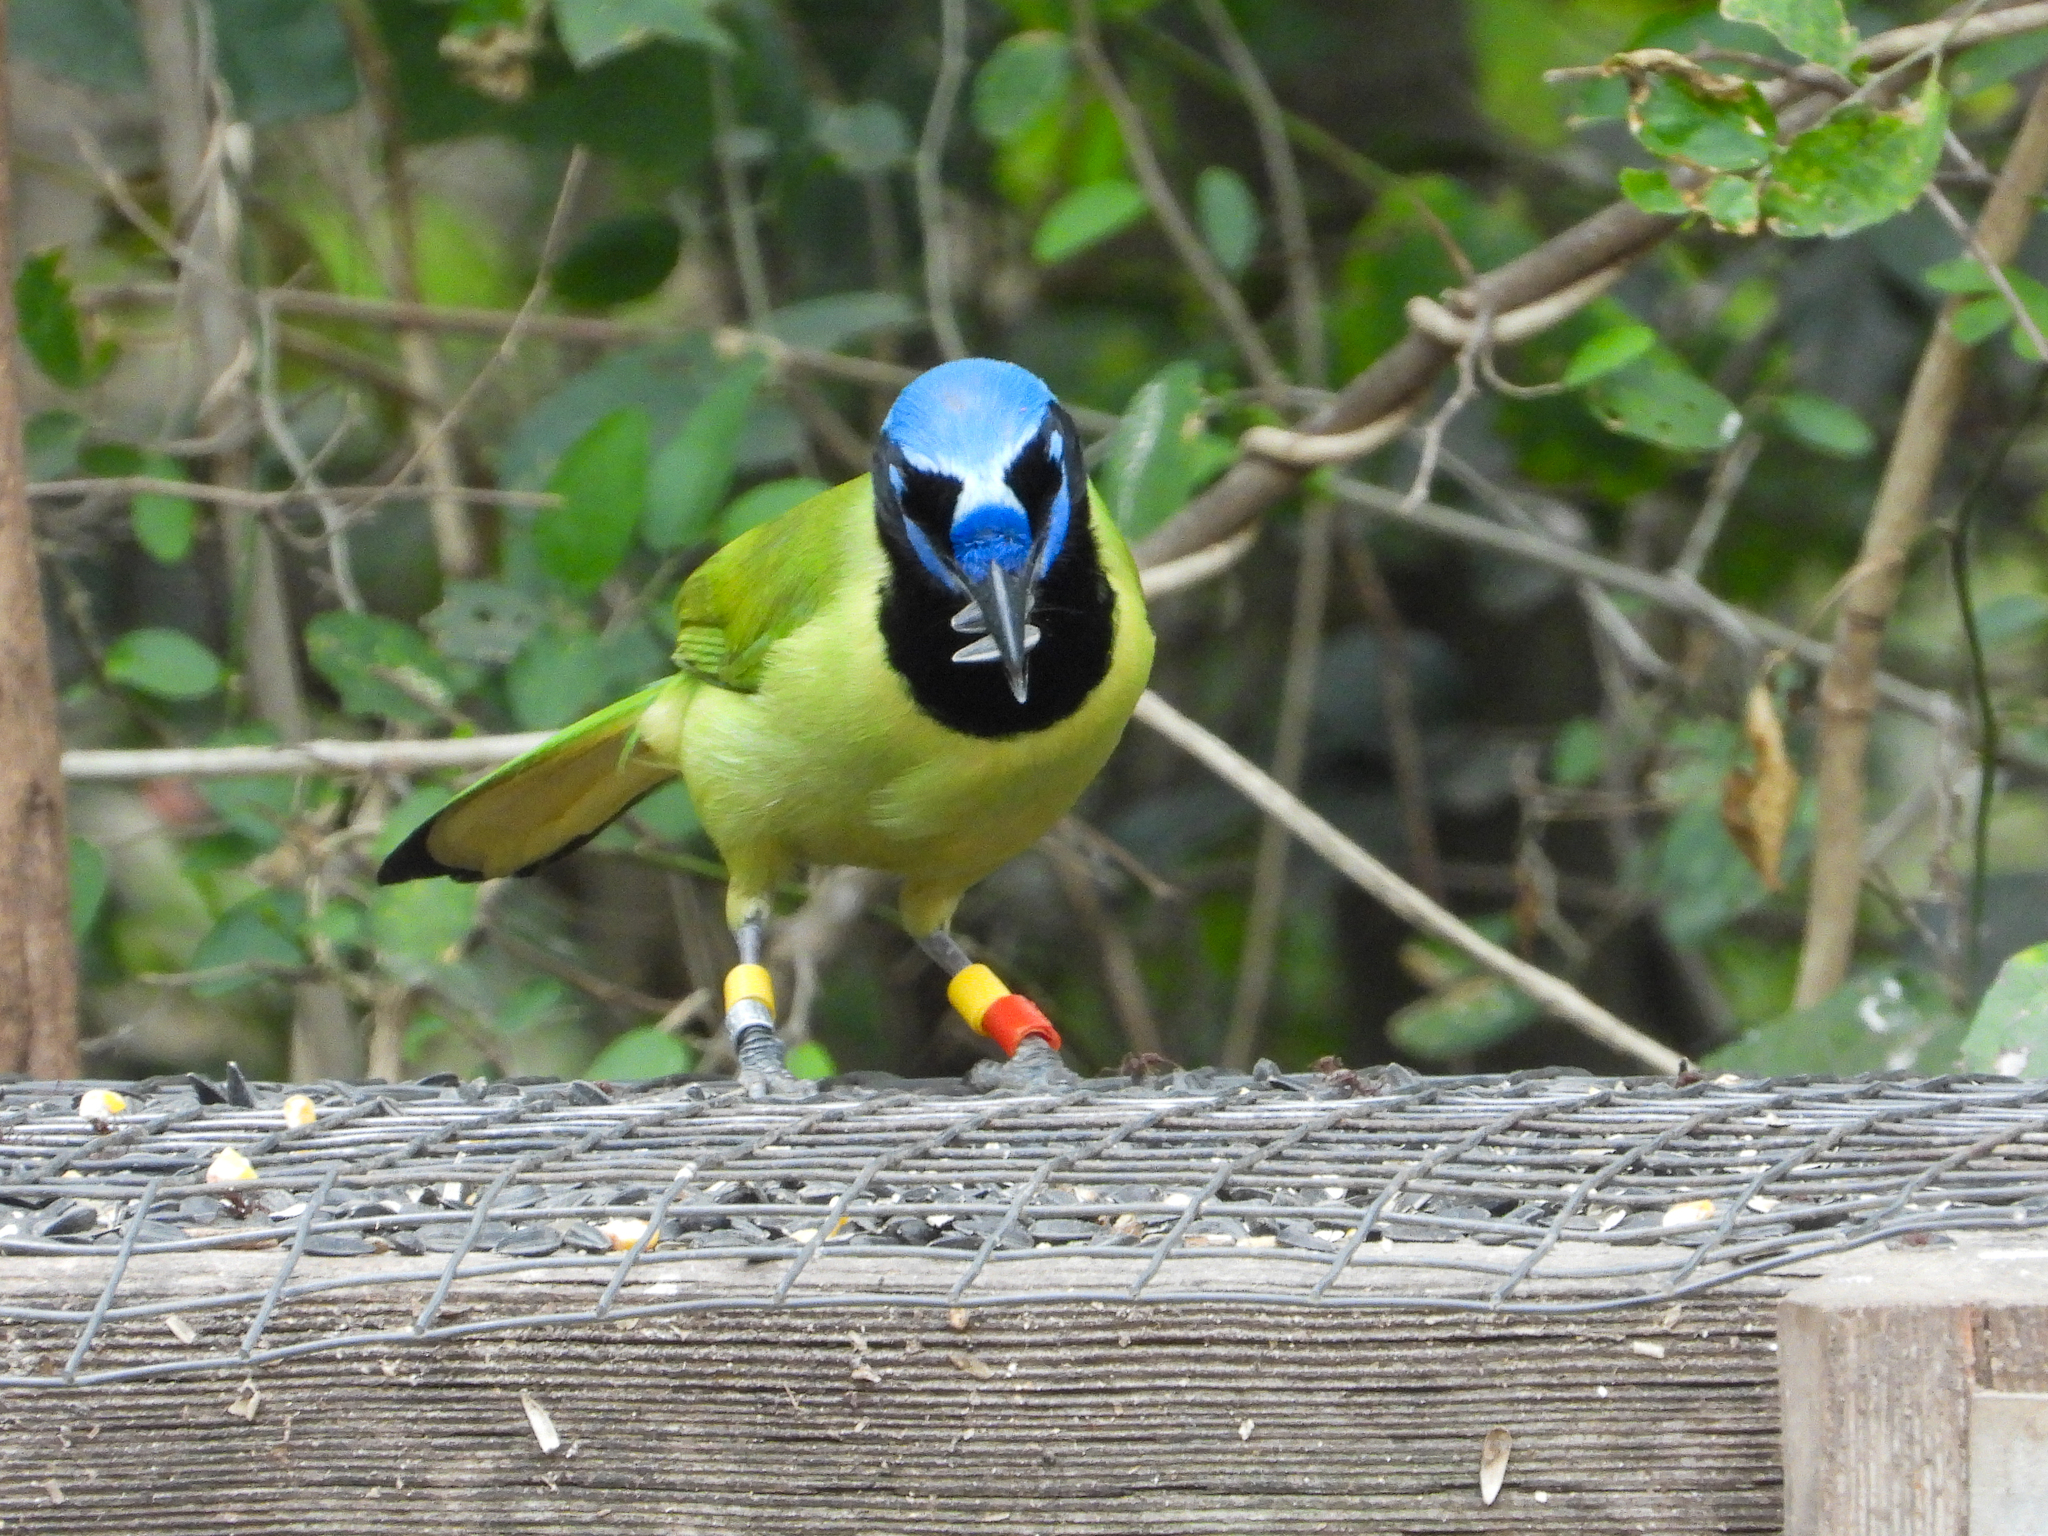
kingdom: Animalia
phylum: Chordata
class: Aves
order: Passeriformes
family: Corvidae
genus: Cyanocorax
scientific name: Cyanocorax yncas
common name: Green jay
